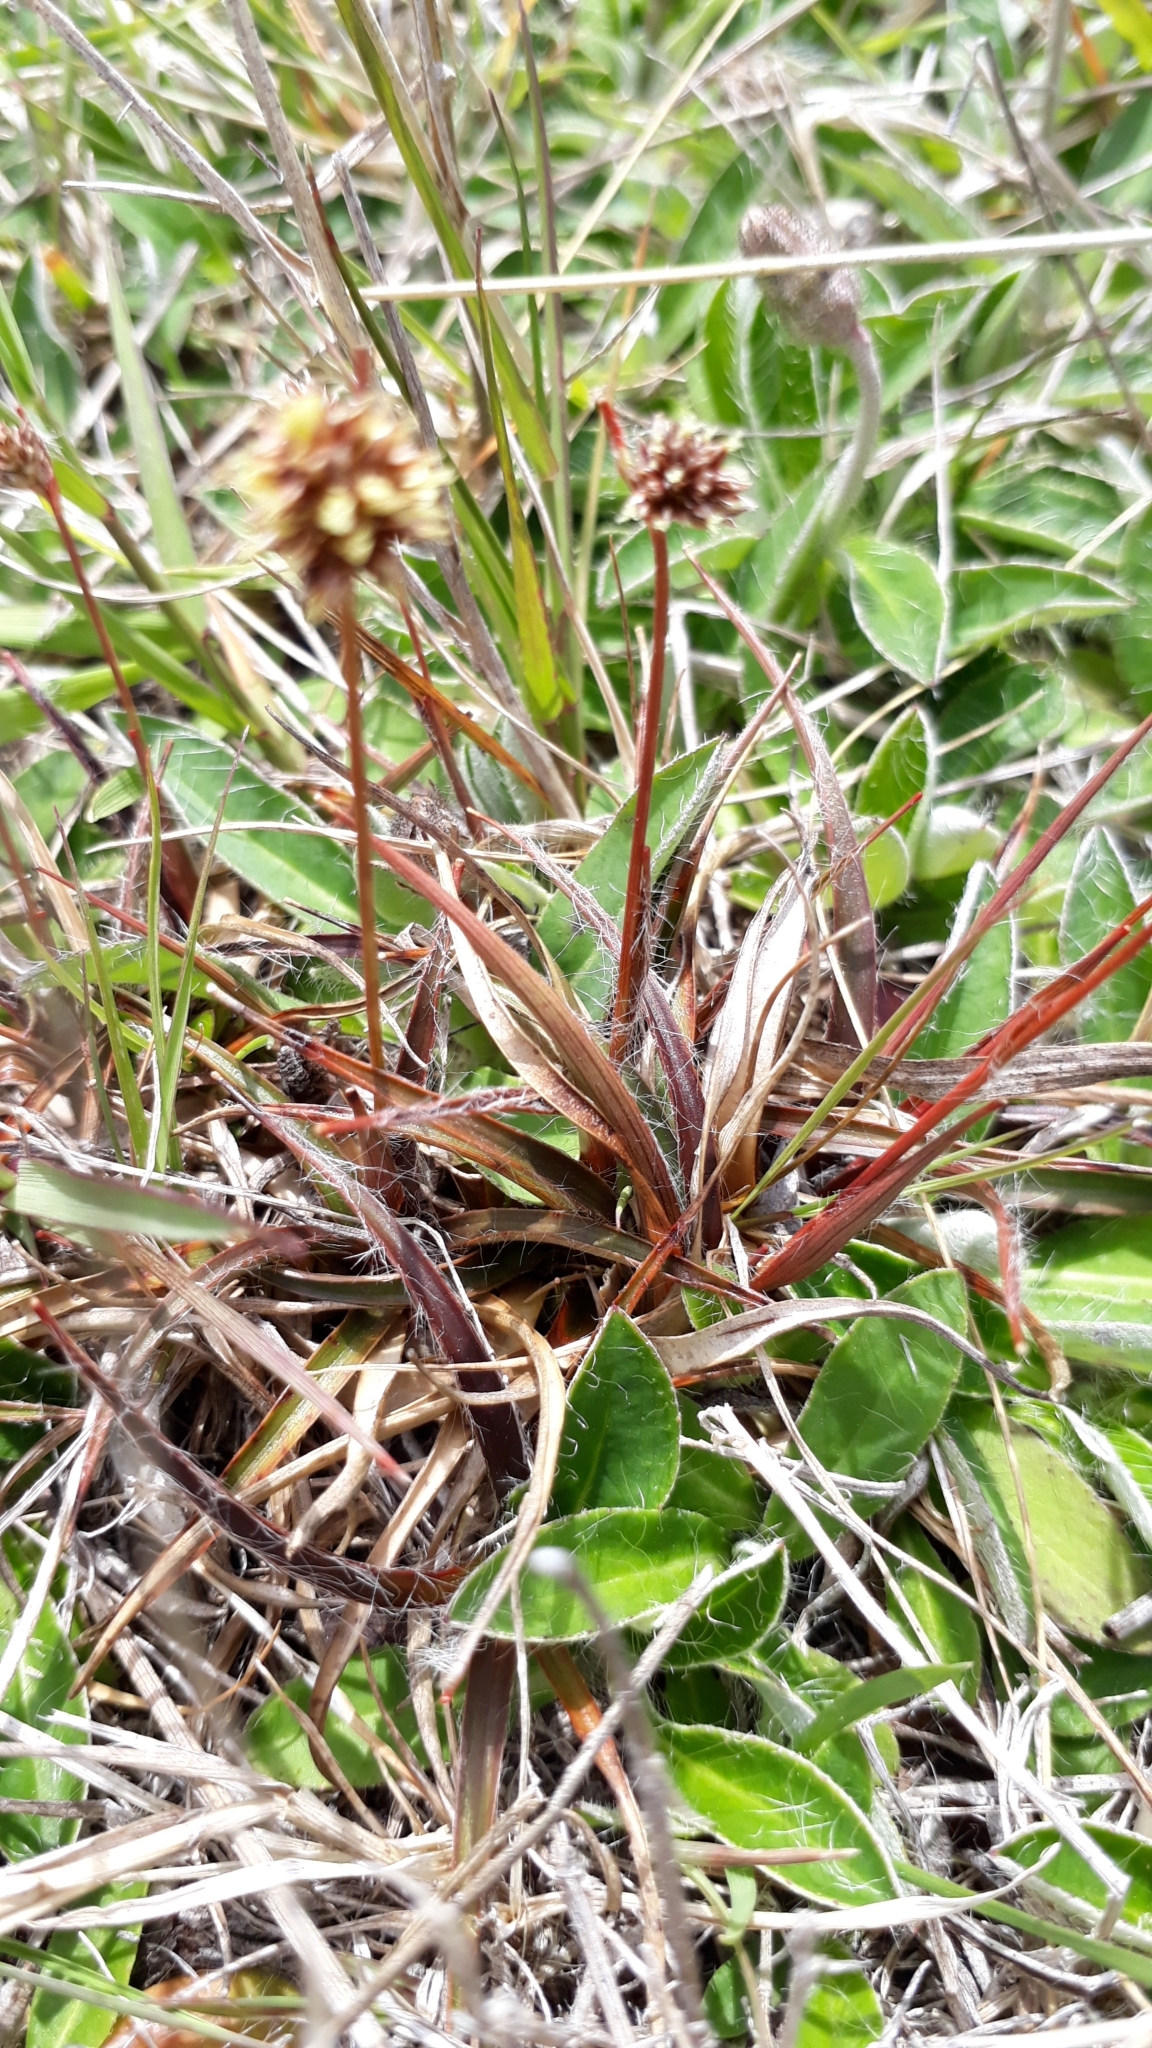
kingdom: Plantae
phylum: Tracheophyta
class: Liliopsida
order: Poales
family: Juncaceae
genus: Luzula
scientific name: Luzula rufa
